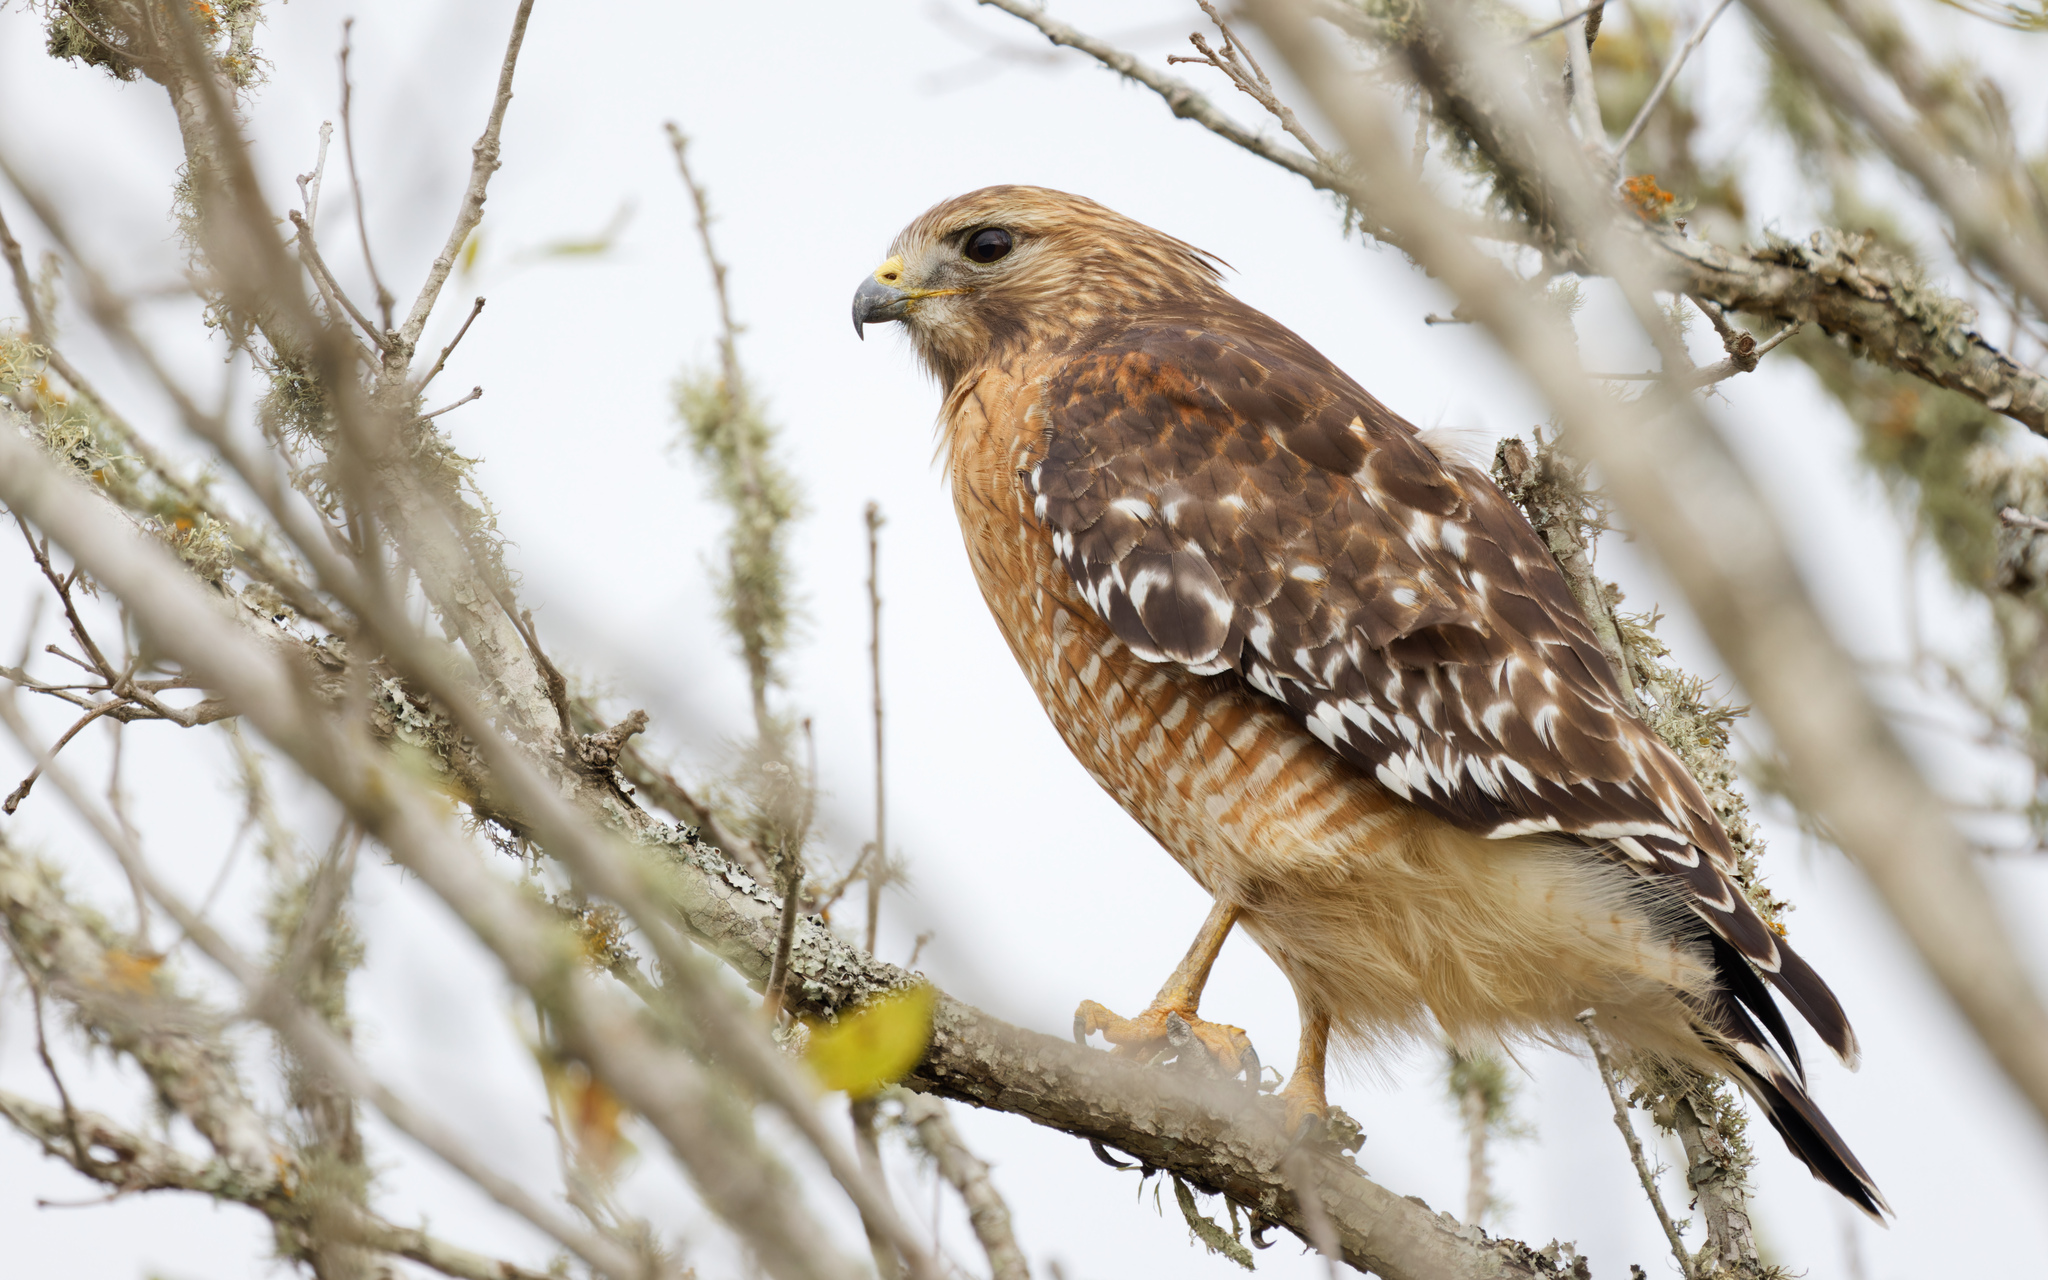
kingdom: Animalia
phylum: Chordata
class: Aves
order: Accipitriformes
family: Accipitridae
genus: Buteo
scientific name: Buteo lineatus
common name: Red-shouldered hawk
